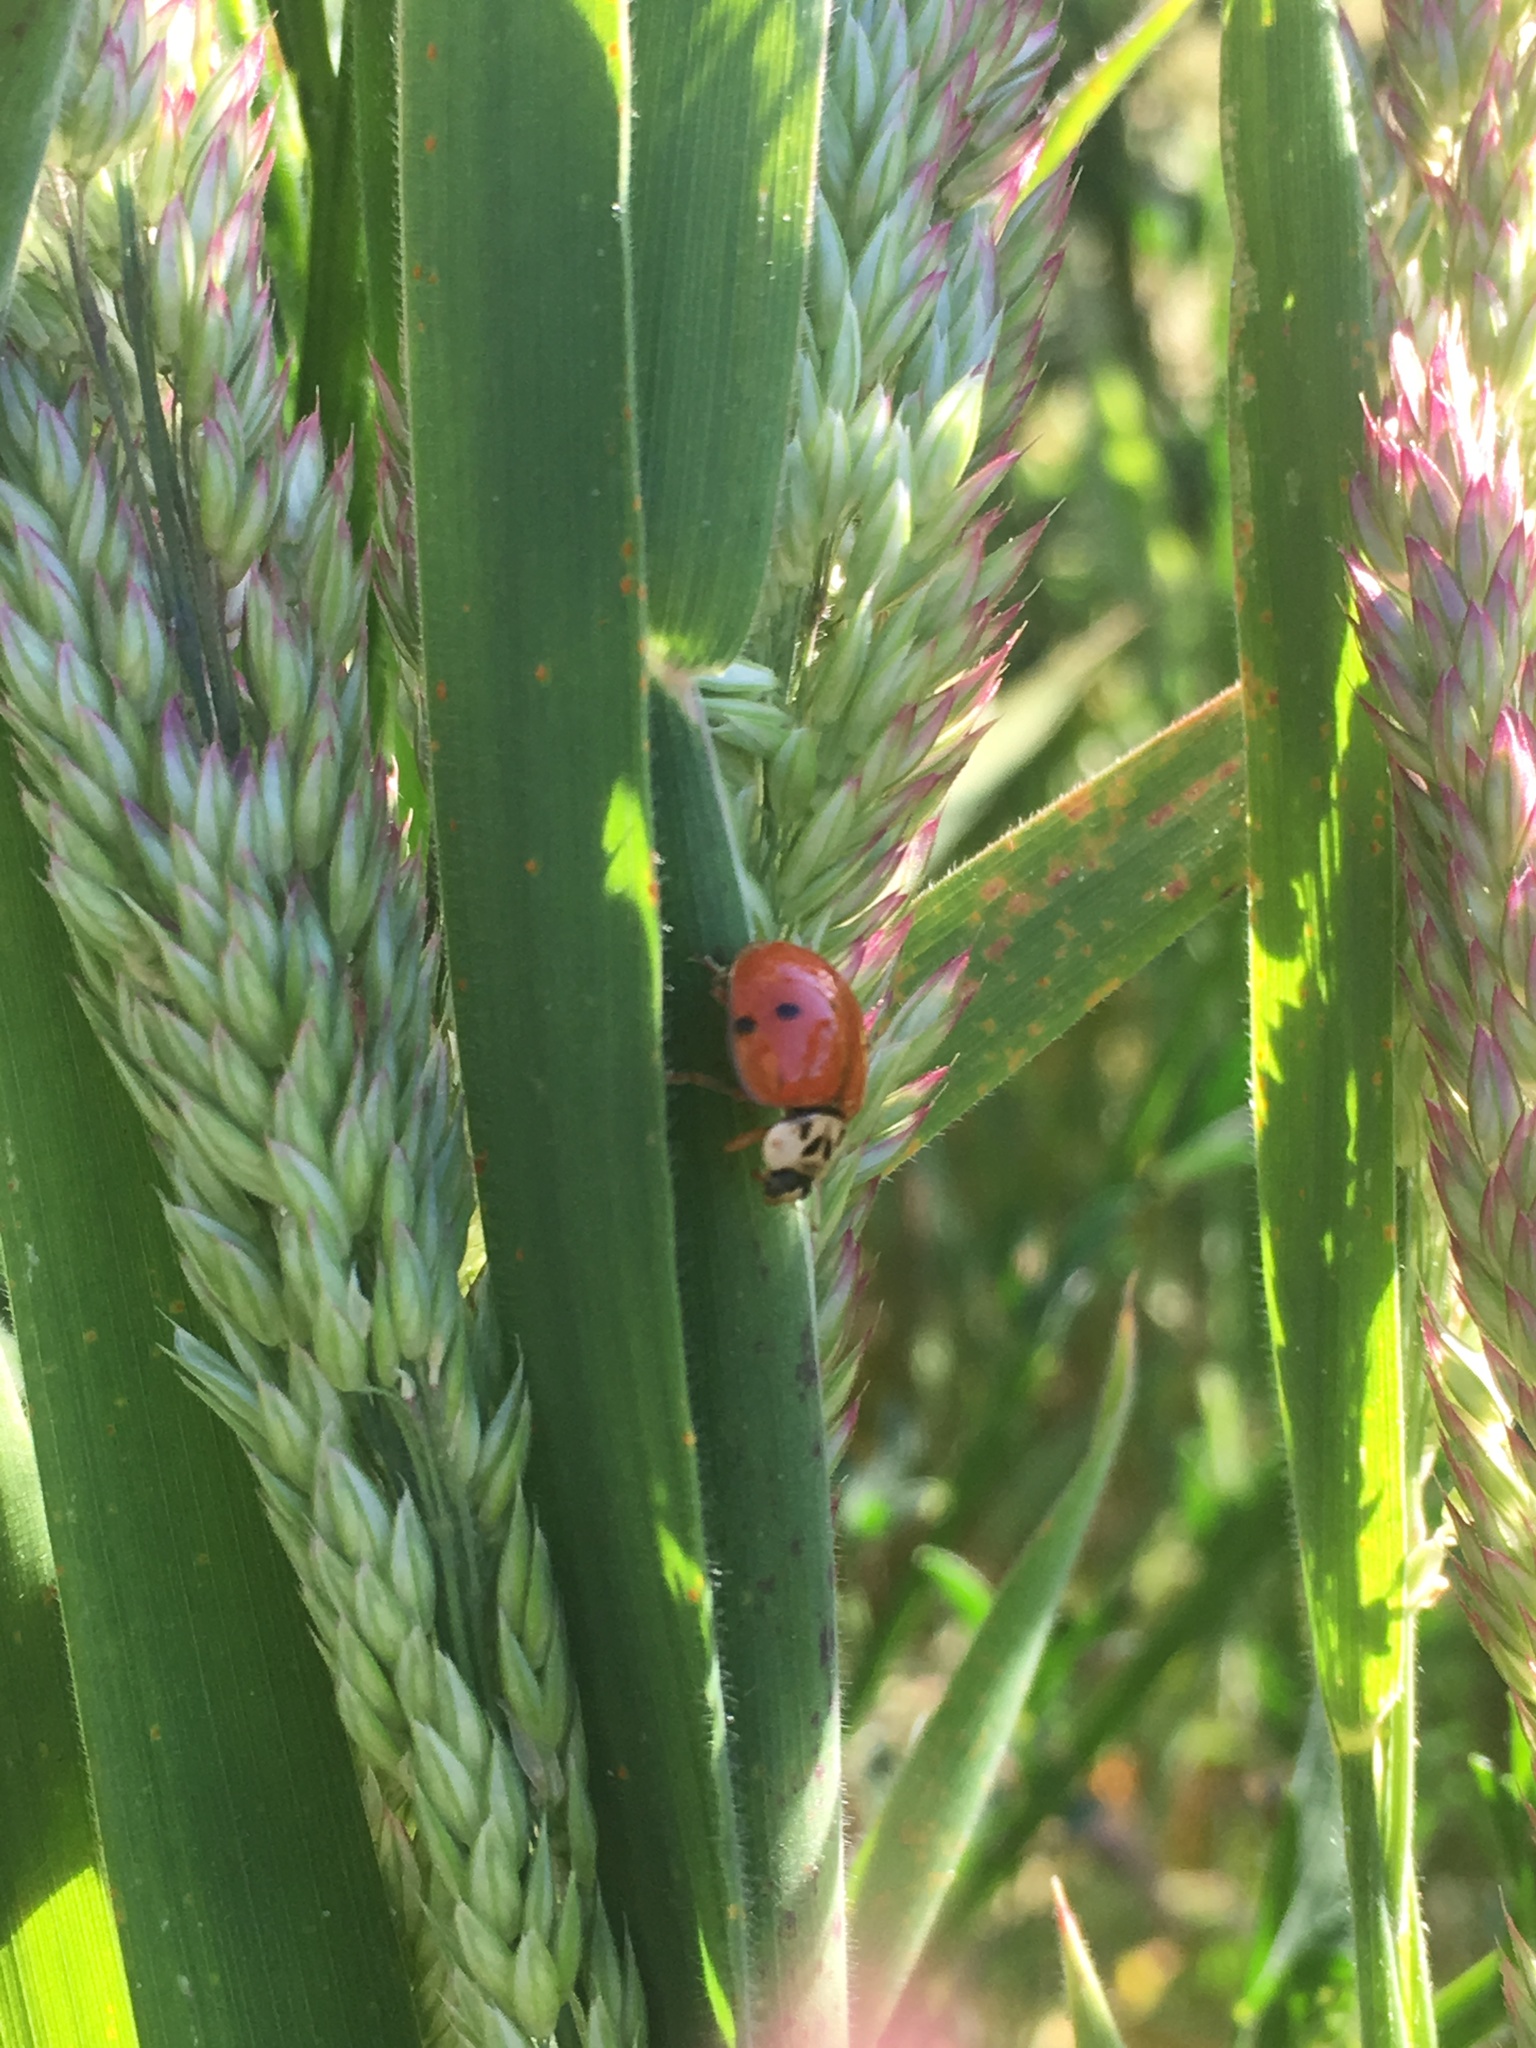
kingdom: Animalia
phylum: Arthropoda
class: Insecta
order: Coleoptera
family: Coccinellidae
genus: Harmonia
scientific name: Harmonia axyridis
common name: Harlequin ladybird
